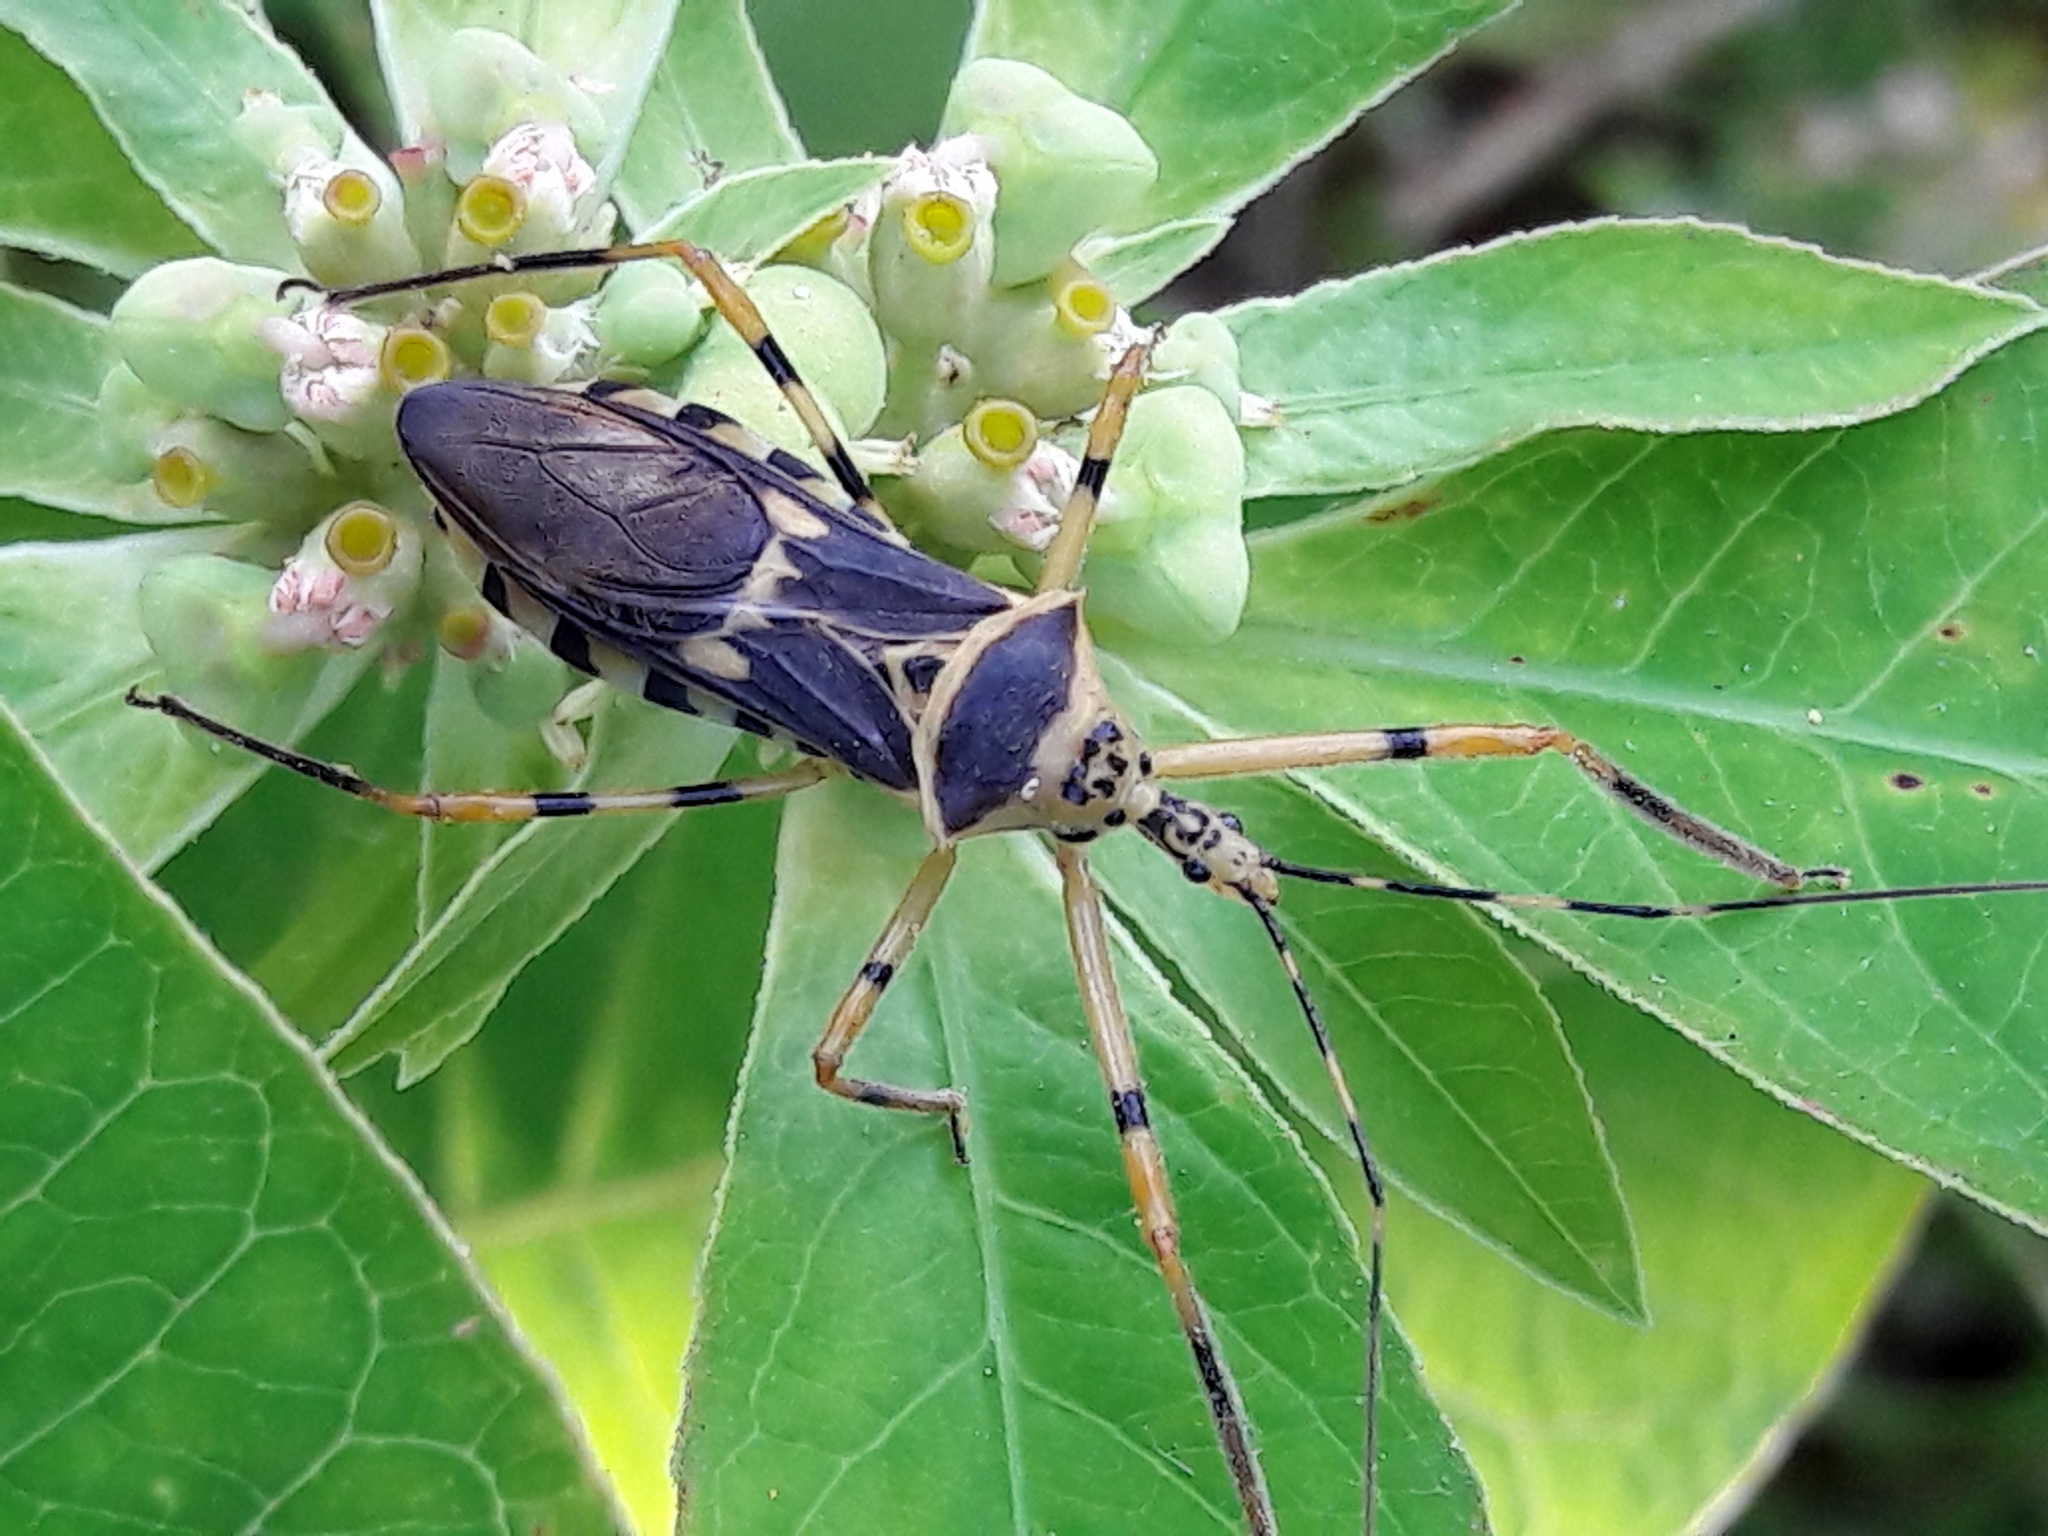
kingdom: Animalia
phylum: Arthropoda
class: Insecta
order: Hemiptera
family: Reduviidae
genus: Zelus
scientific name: Zelus armillatus
